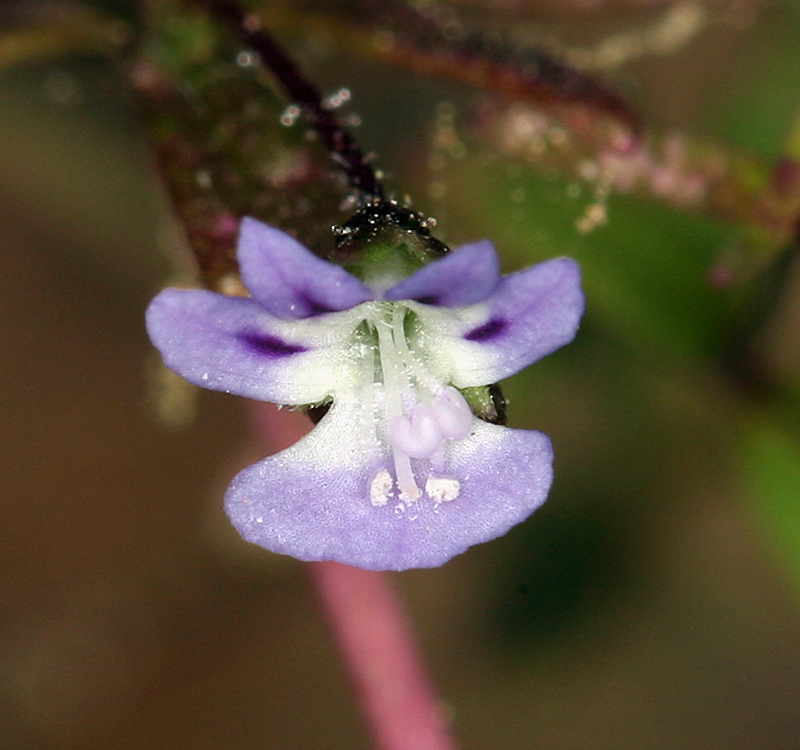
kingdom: Plantae
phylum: Tracheophyta
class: Magnoliopsida
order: Lamiales
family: Plantaginaceae
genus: Tonella
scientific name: Tonella tenella
